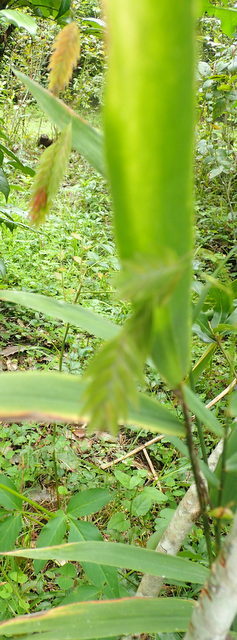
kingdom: Plantae
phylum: Tracheophyta
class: Liliopsida
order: Poales
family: Poaceae
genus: Chasmanthium
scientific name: Chasmanthium latifolium
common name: Broad-leaved chasmanthium
